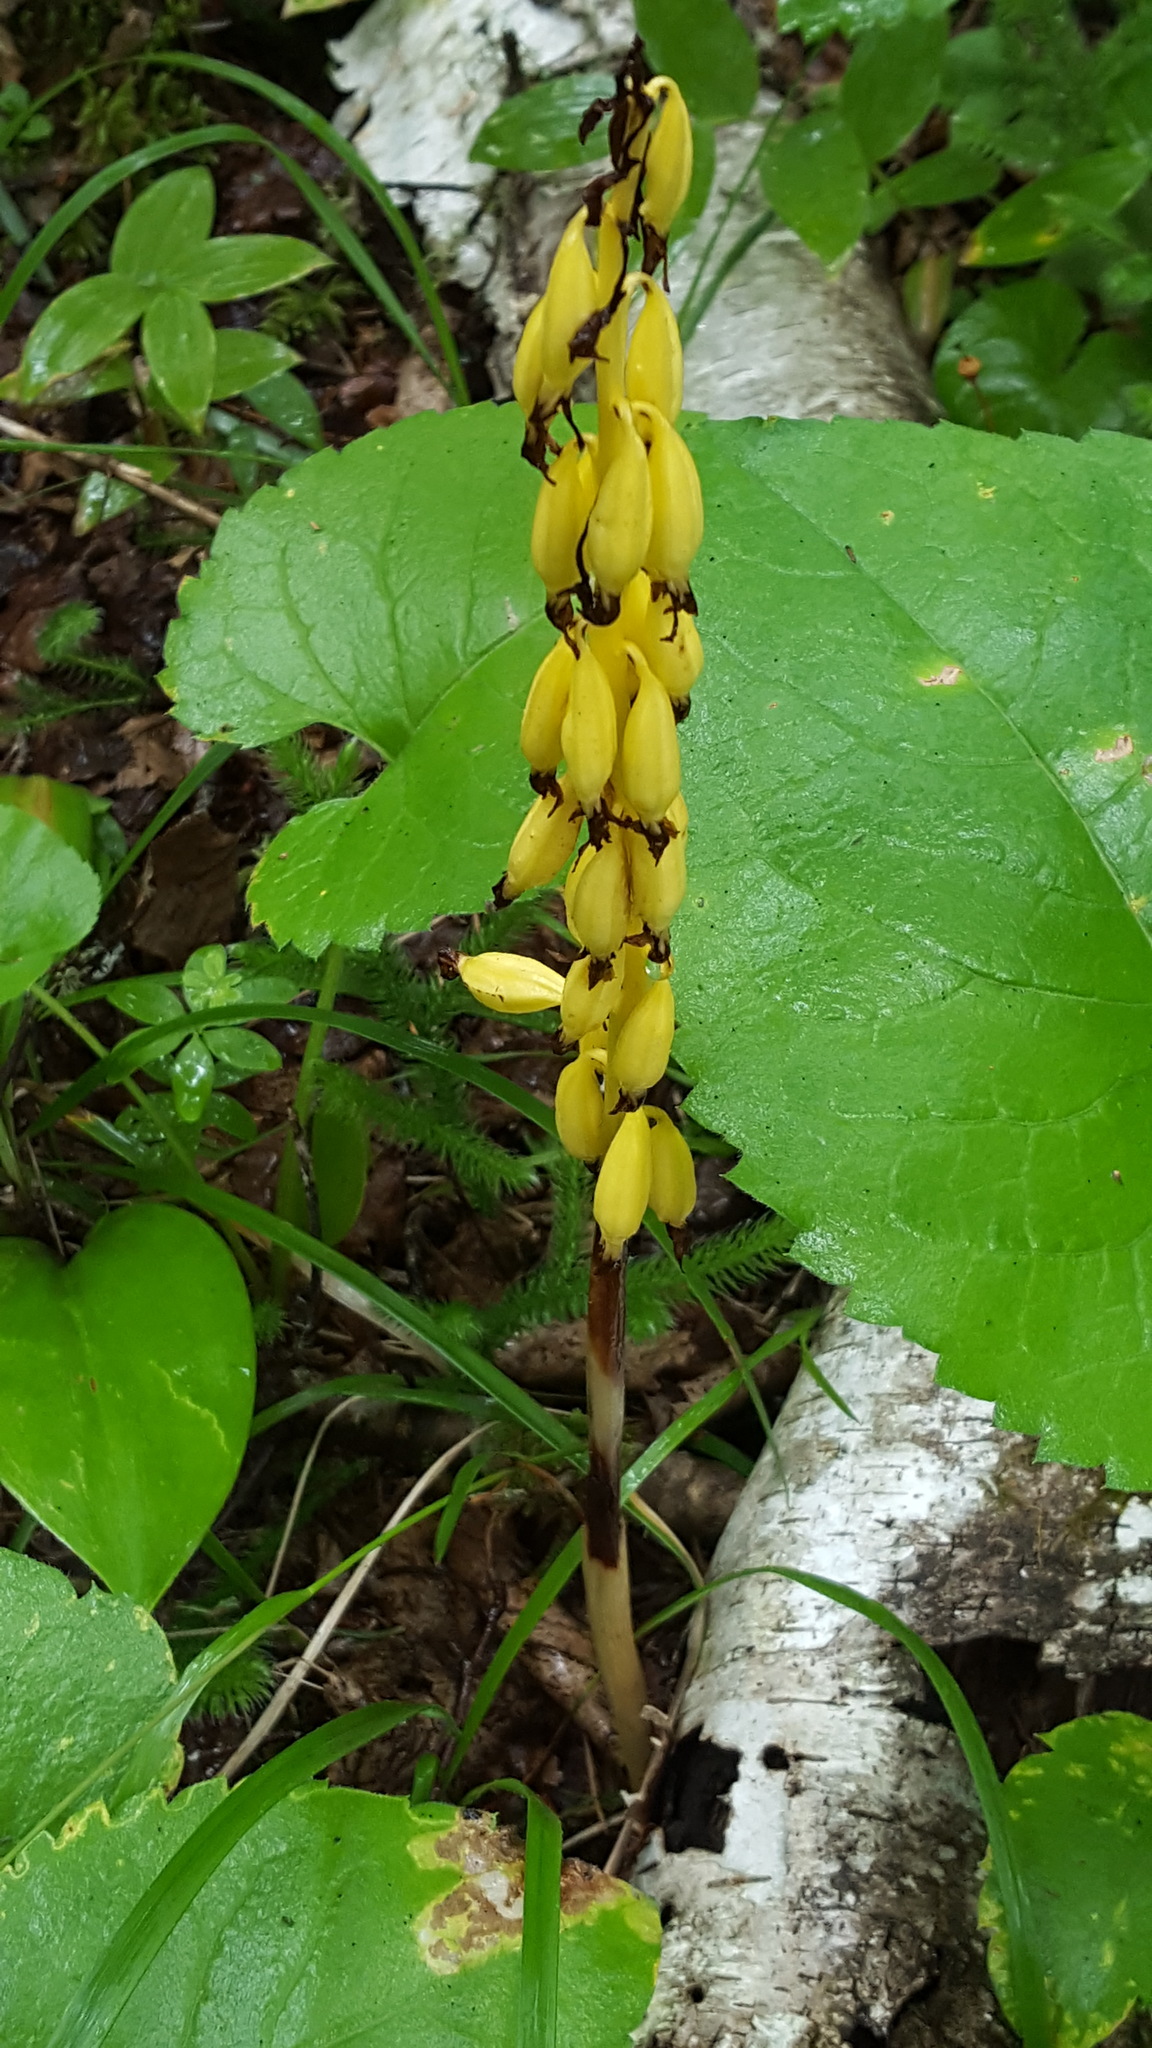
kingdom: Plantae
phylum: Tracheophyta
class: Liliopsida
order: Asparagales
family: Orchidaceae
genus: Corallorhiza
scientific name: Corallorhiza maculata
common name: Spotted coralroot
